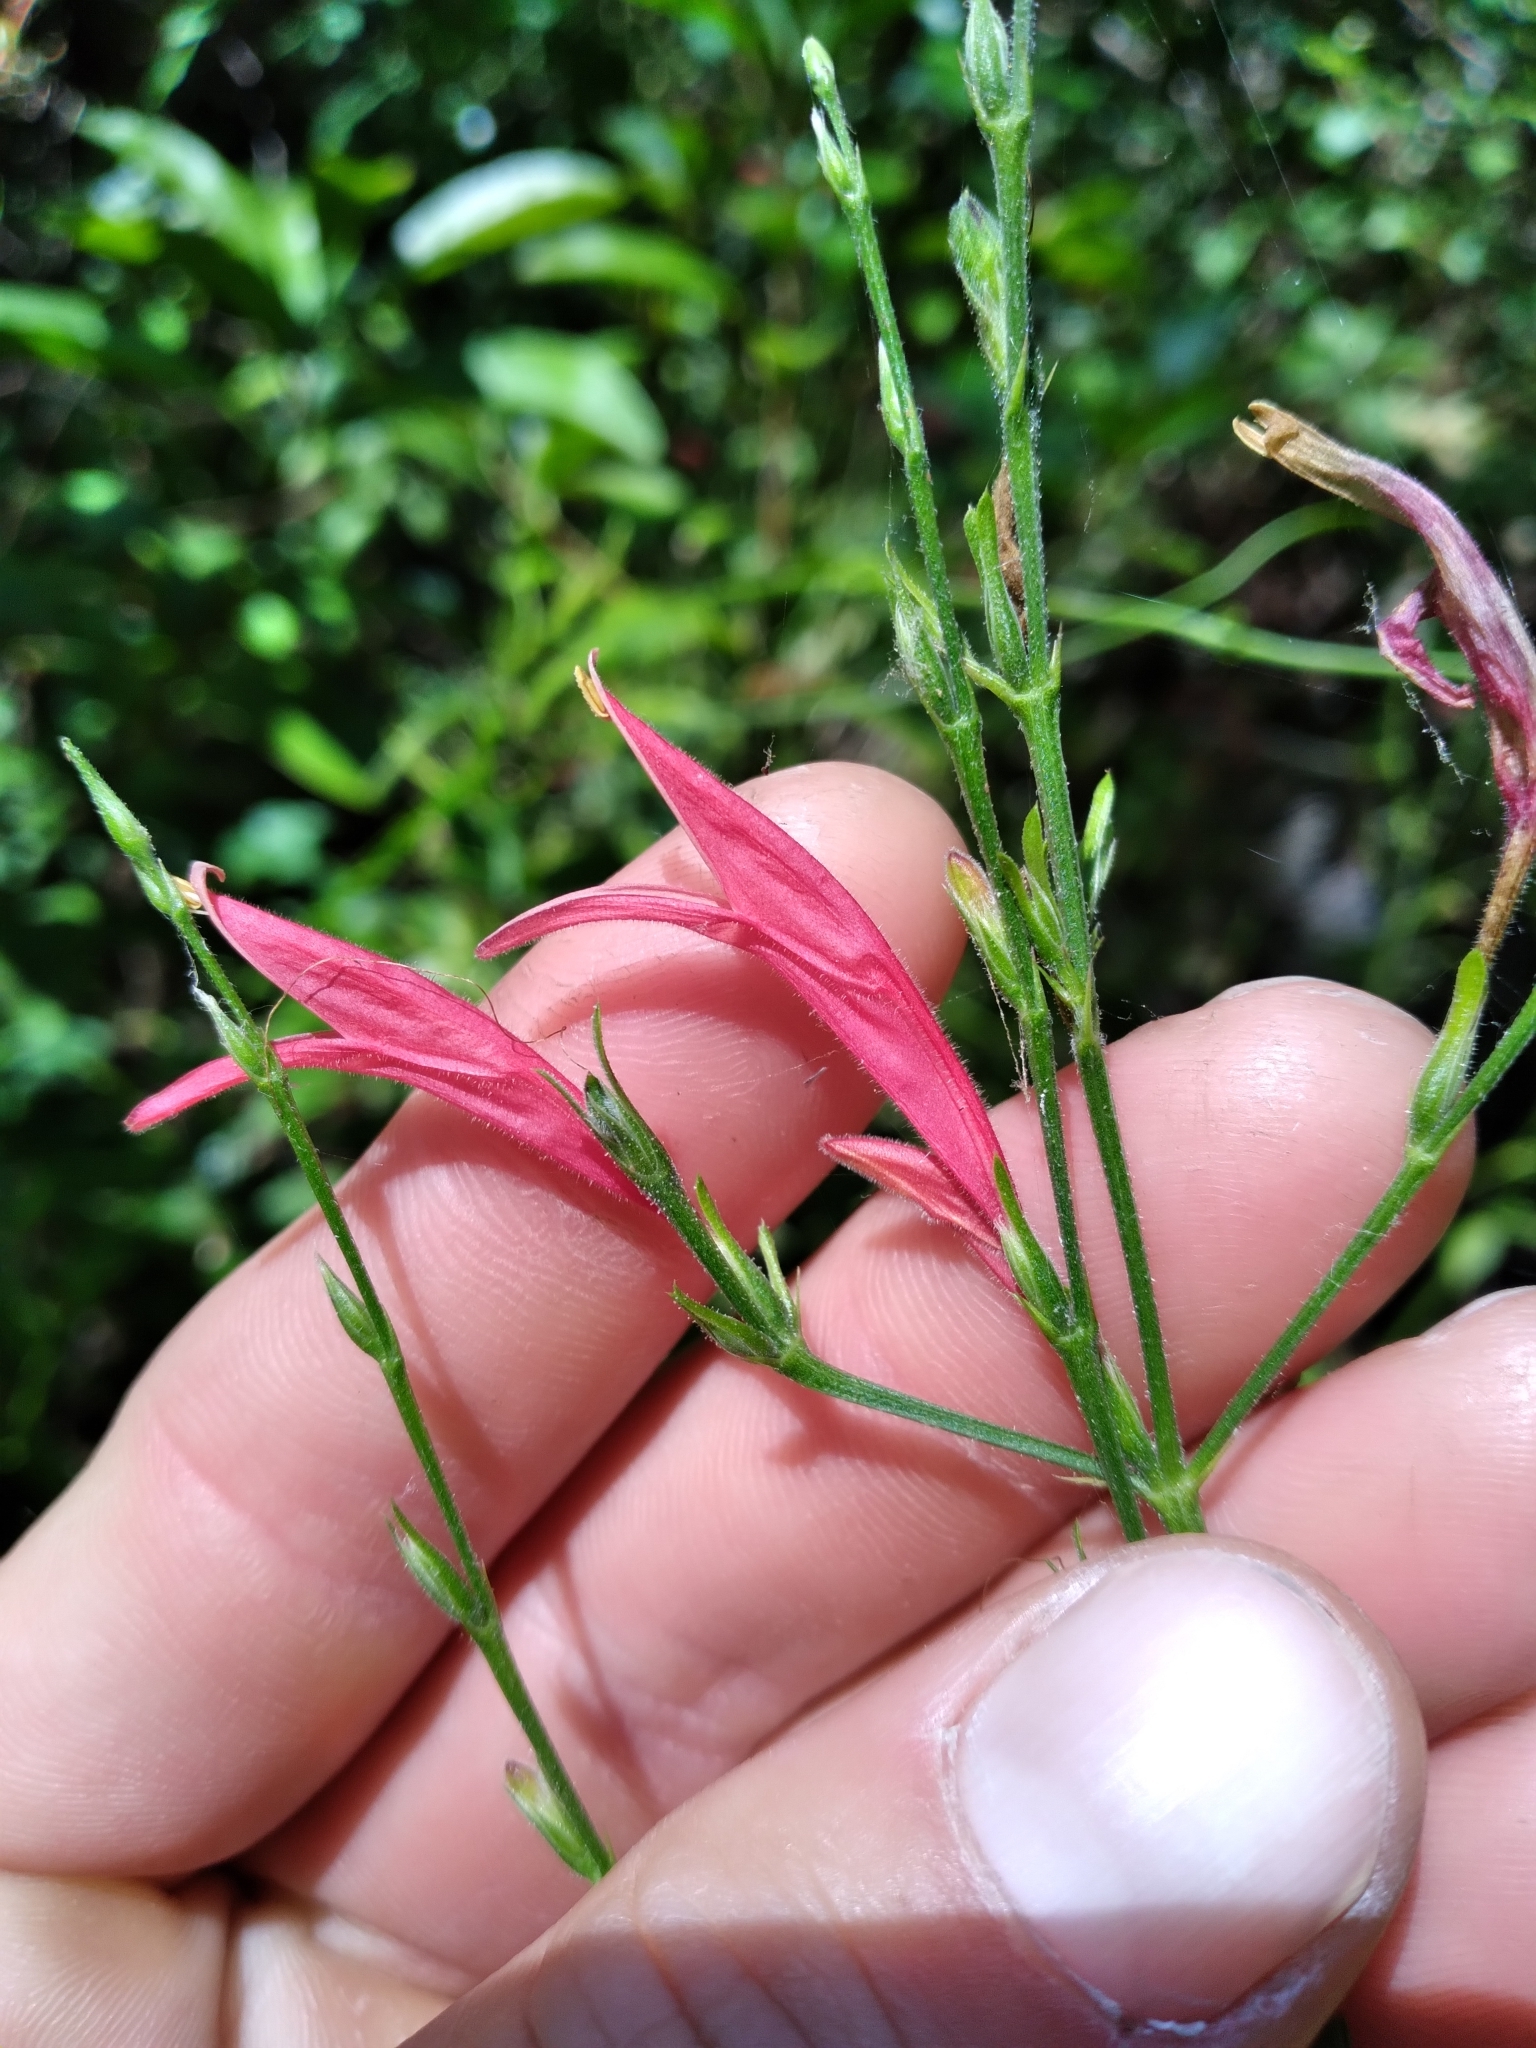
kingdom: Plantae
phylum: Tracheophyta
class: Magnoliopsida
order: Lamiales
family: Acanthaceae
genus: Dicliptera
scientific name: Dicliptera sexangularis
